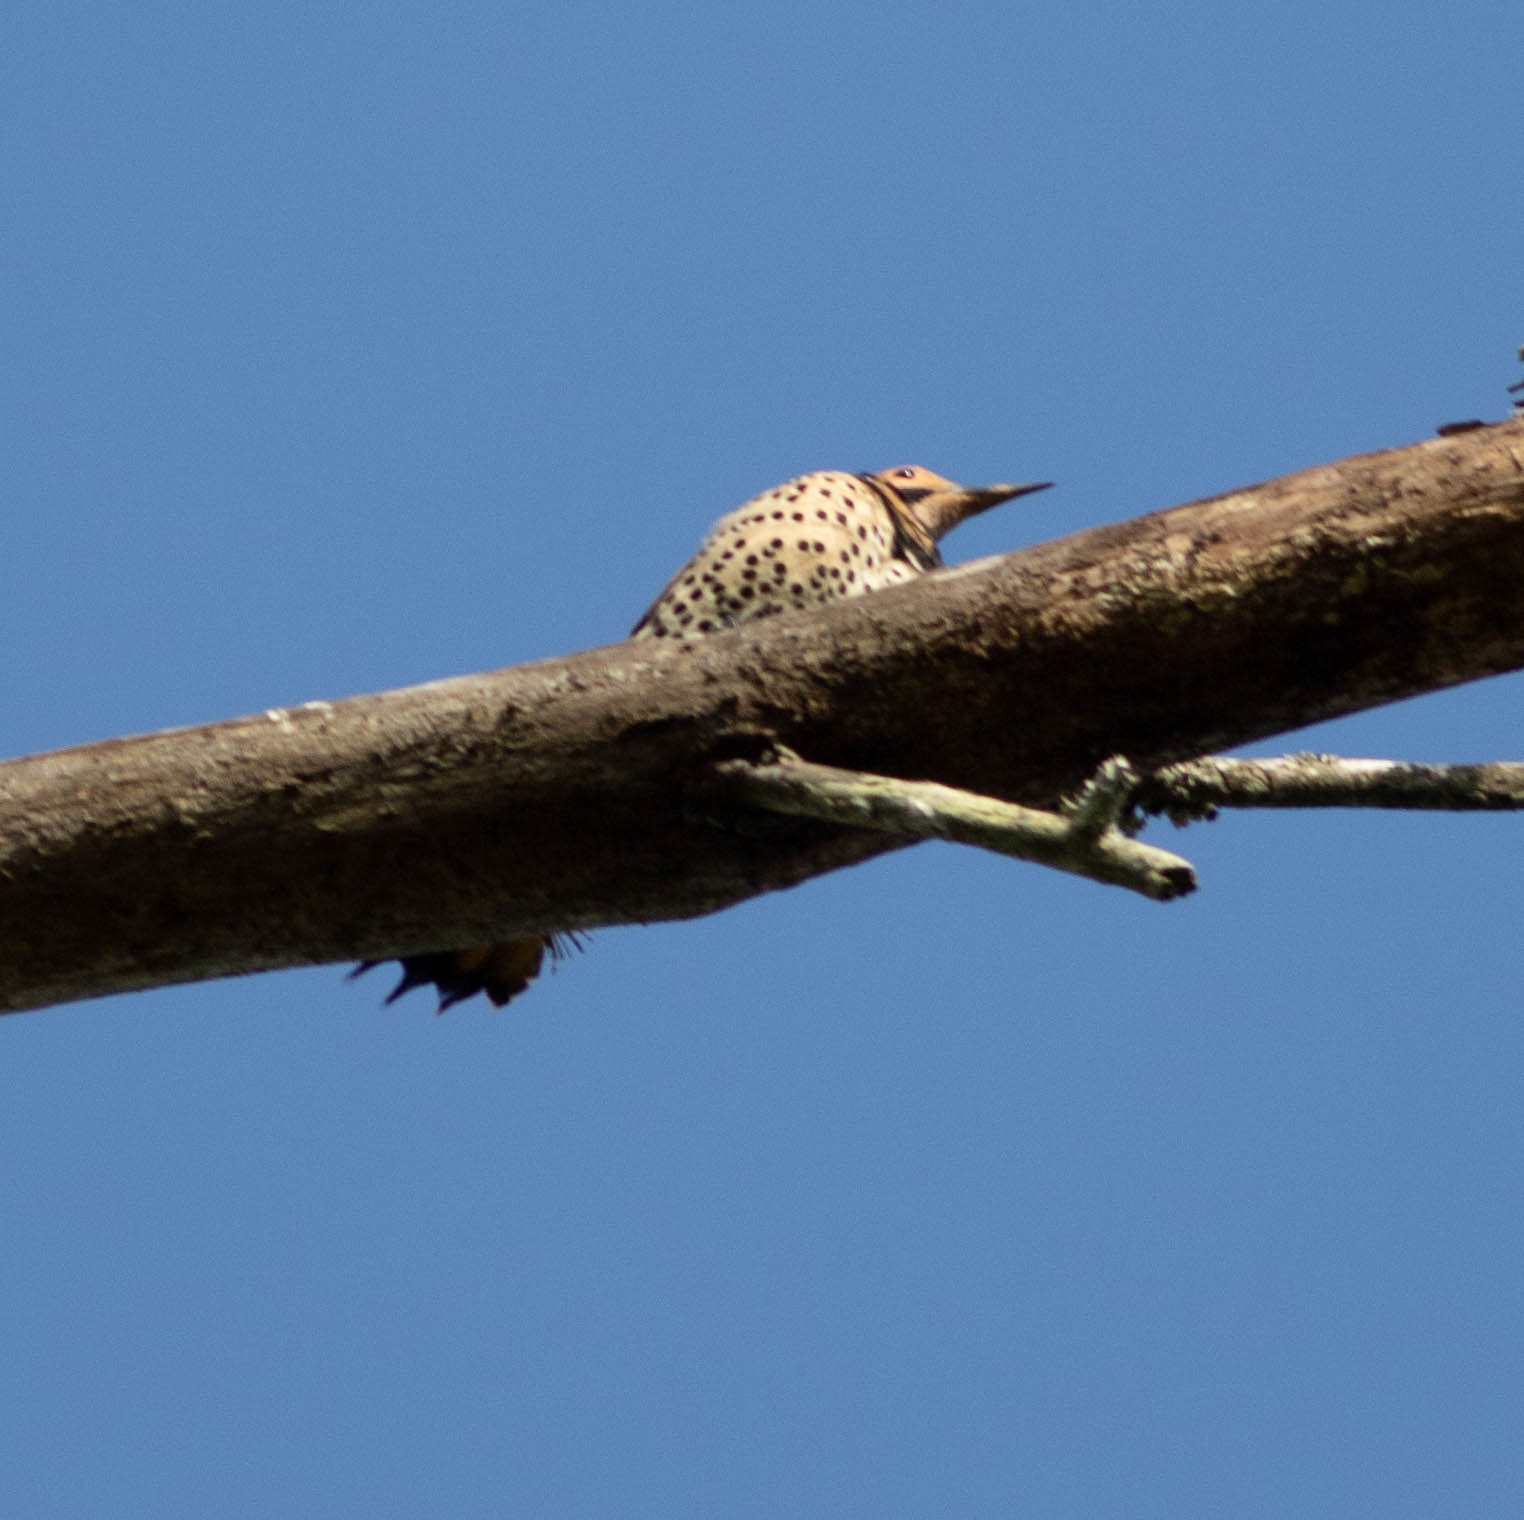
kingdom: Animalia
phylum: Chordata
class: Aves
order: Piciformes
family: Picidae
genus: Colaptes
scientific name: Colaptes auratus
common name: Northern flicker
